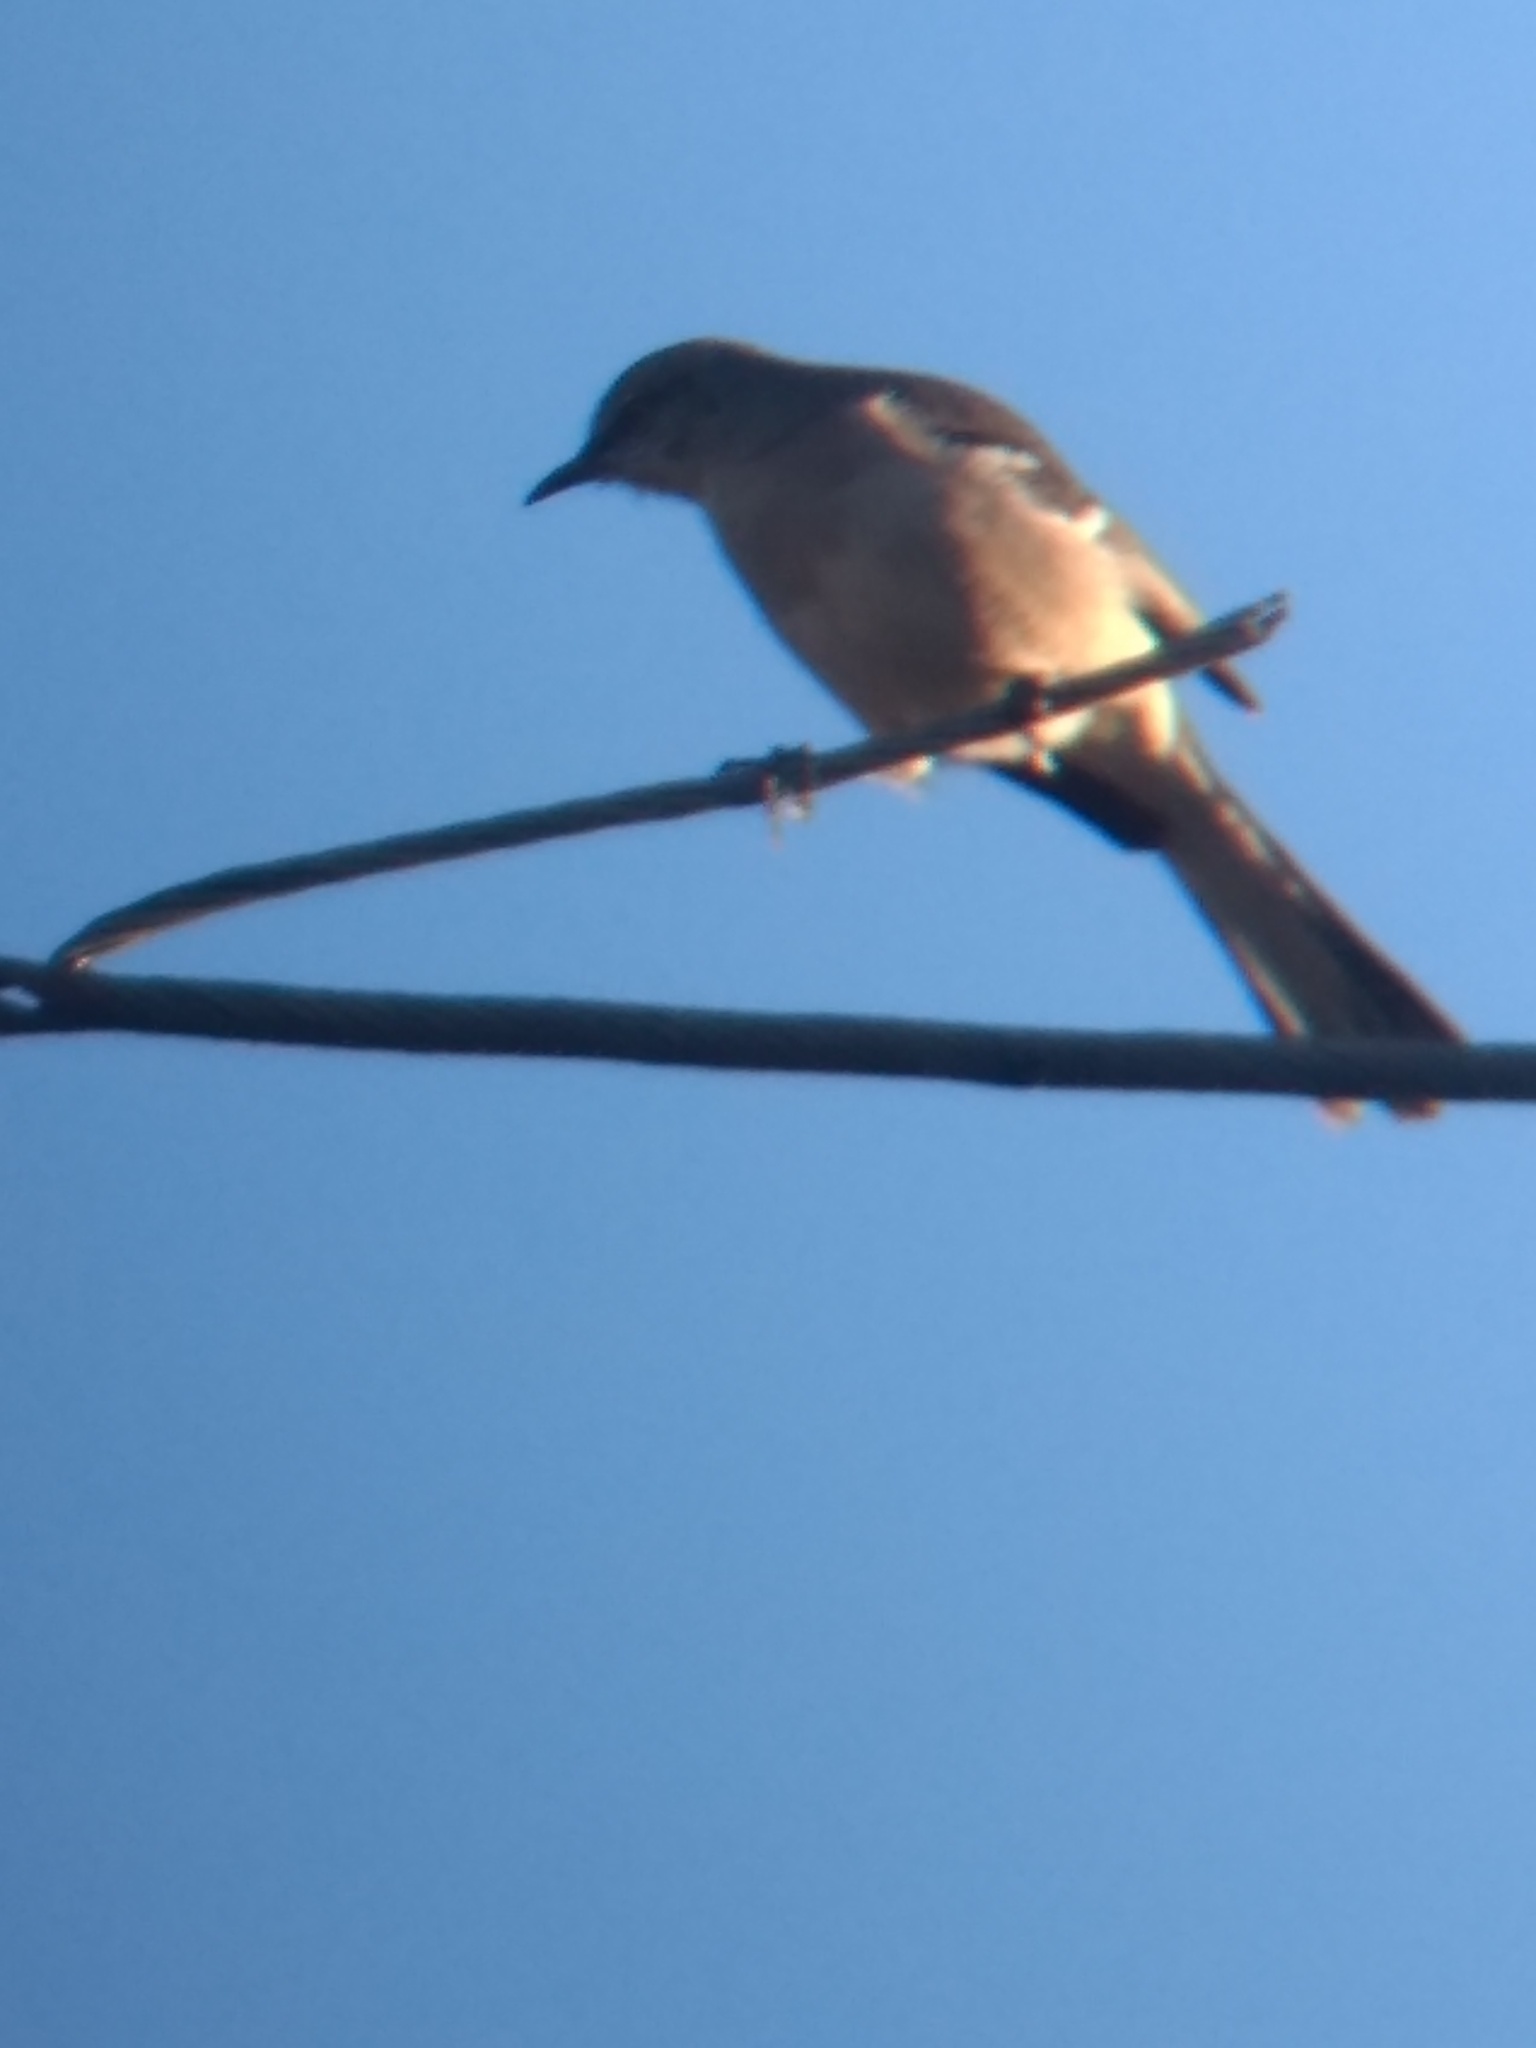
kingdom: Animalia
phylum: Chordata
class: Aves
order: Passeriformes
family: Mimidae
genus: Mimus
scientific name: Mimus polyglottos
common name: Northern mockingbird
